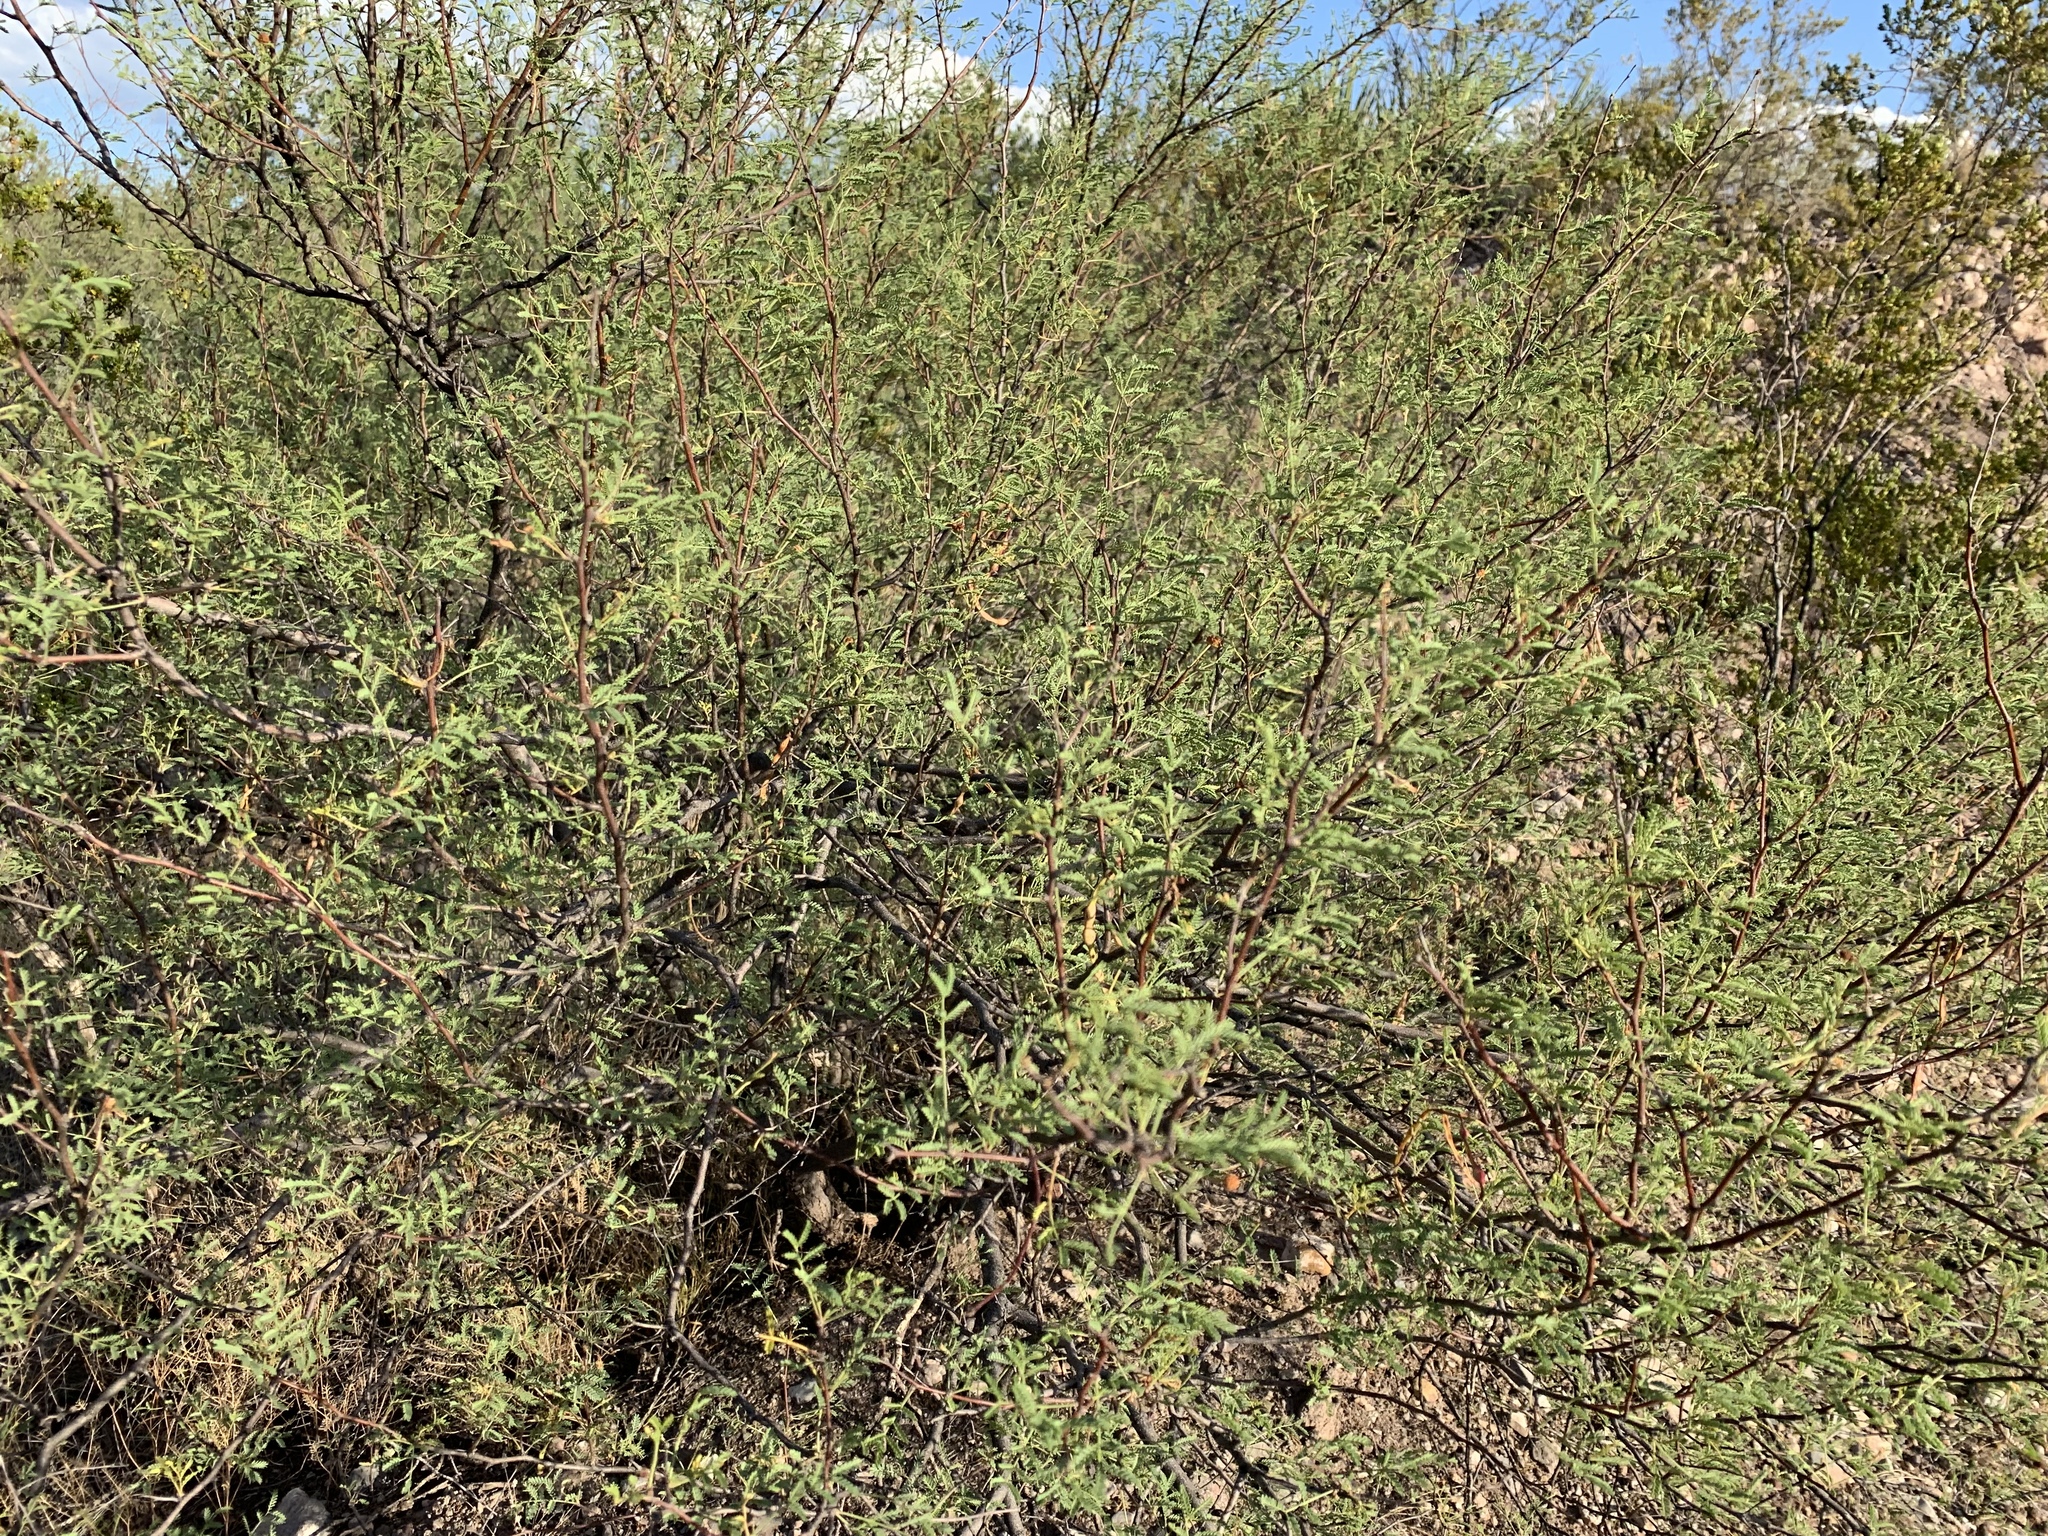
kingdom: Plantae
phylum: Tracheophyta
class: Magnoliopsida
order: Fabales
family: Fabaceae
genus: Vachellia
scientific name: Vachellia constricta
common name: Mescat acacia
